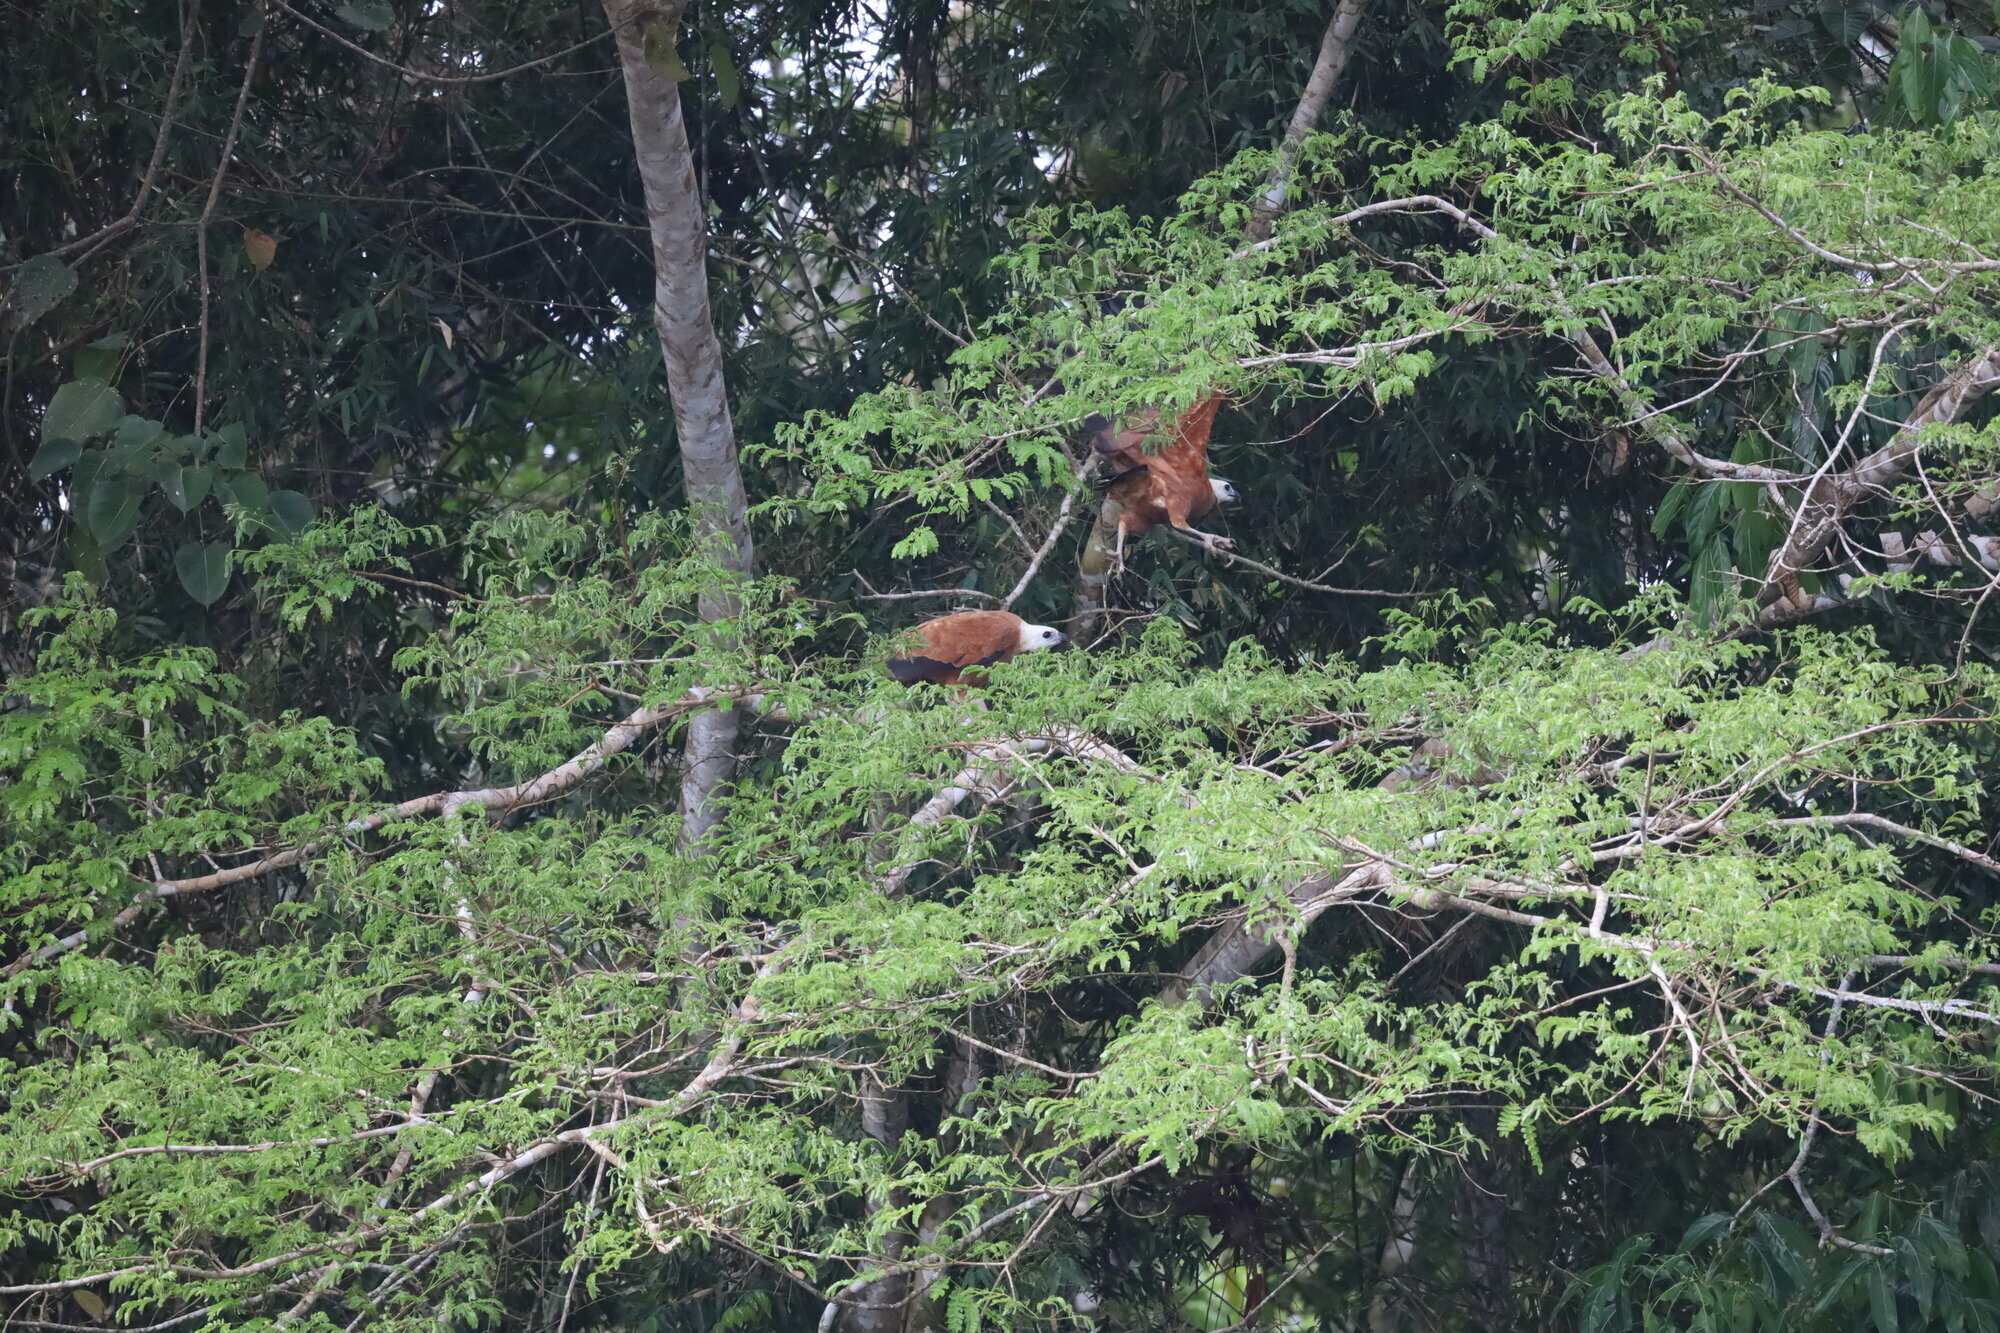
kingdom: Animalia
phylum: Chordata
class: Aves
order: Accipitriformes
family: Accipitridae
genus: Busarellus
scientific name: Busarellus nigricollis
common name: Black-collared hawk
